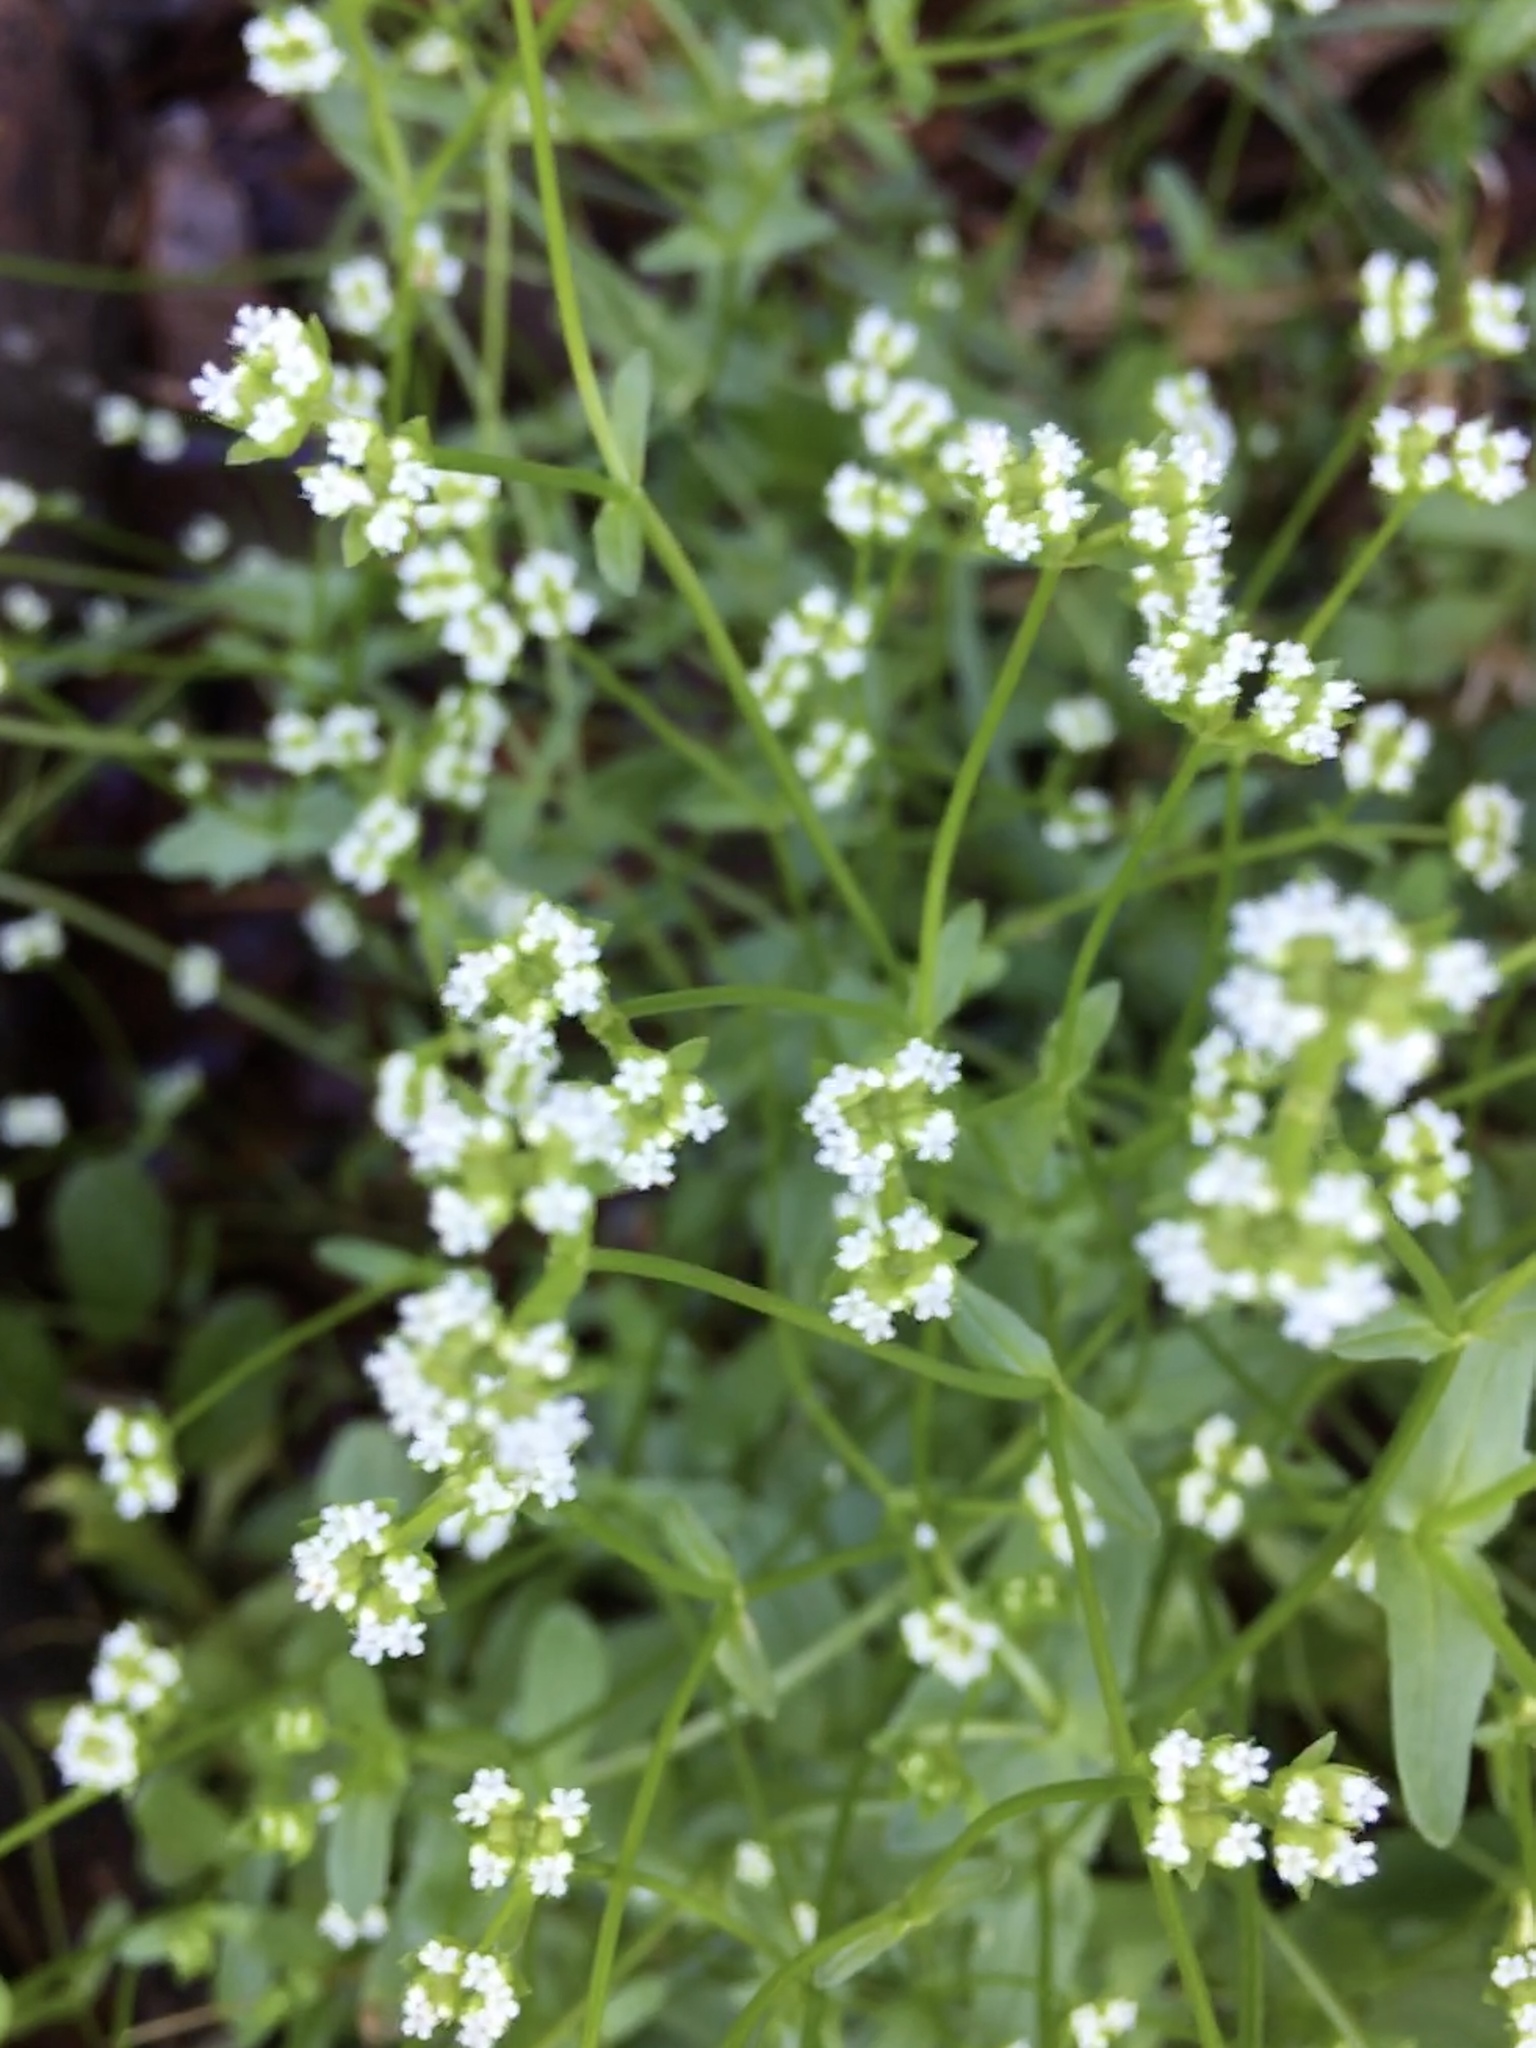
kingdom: Plantae
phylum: Tracheophyta
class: Magnoliopsida
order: Dipsacales
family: Caprifoliaceae
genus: Valerianella
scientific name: Valerianella radiata
